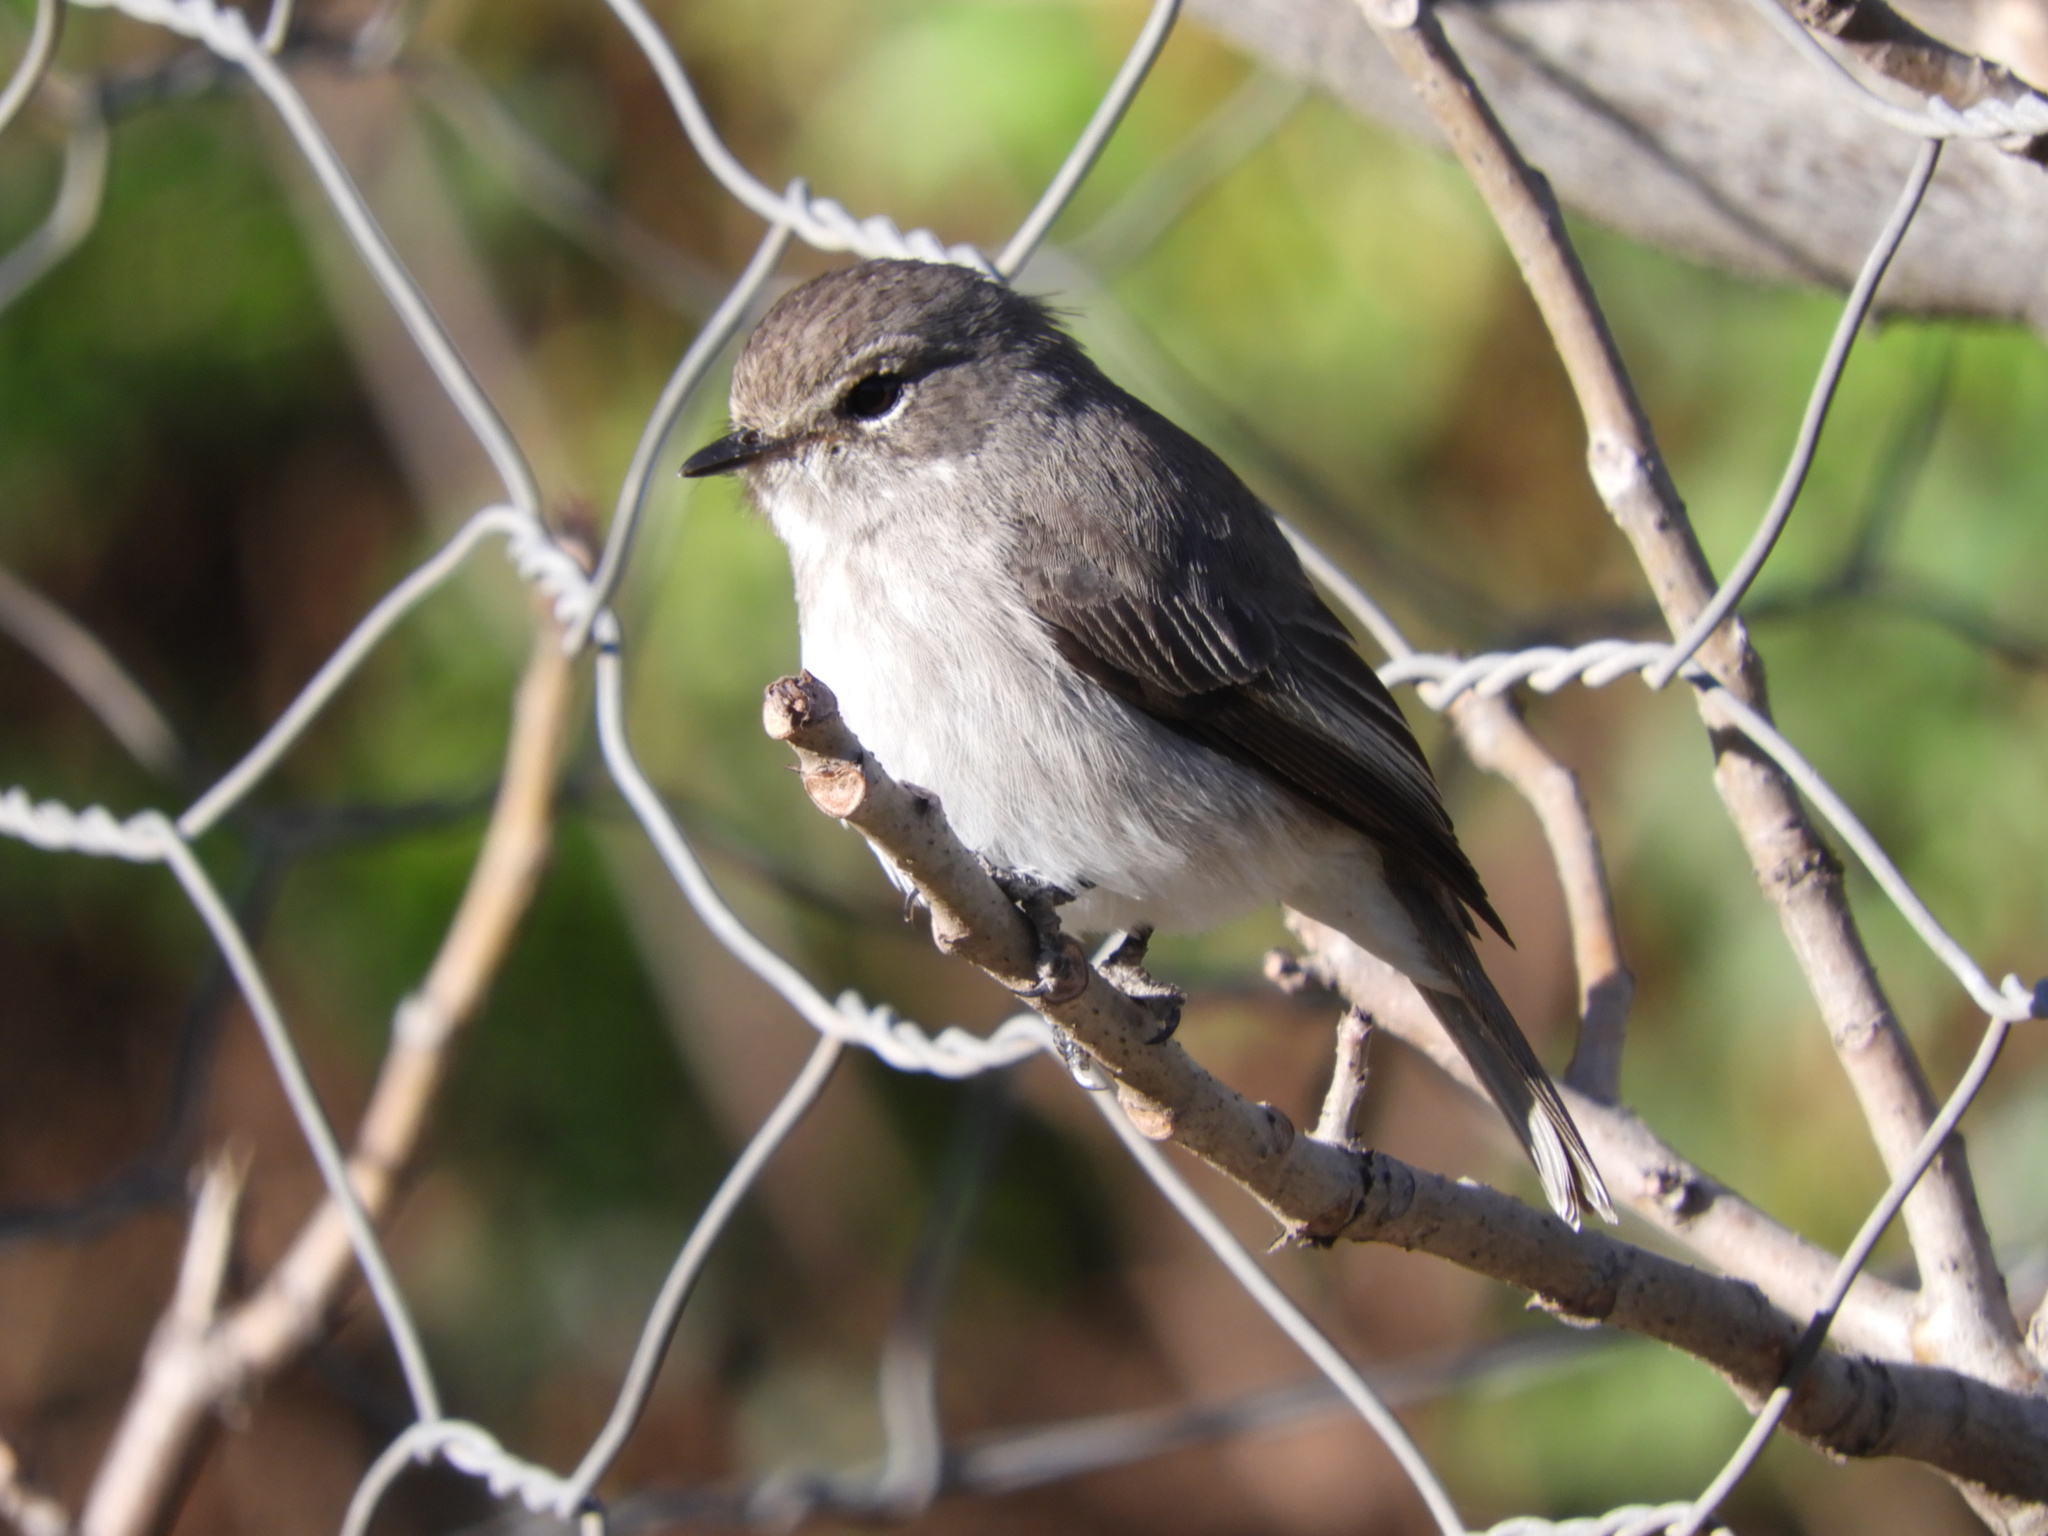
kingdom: Animalia
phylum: Chordata
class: Aves
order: Passeriformes
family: Muscicapidae
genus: Muscicapa
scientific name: Muscicapa adusta
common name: African dusky flycatcher
